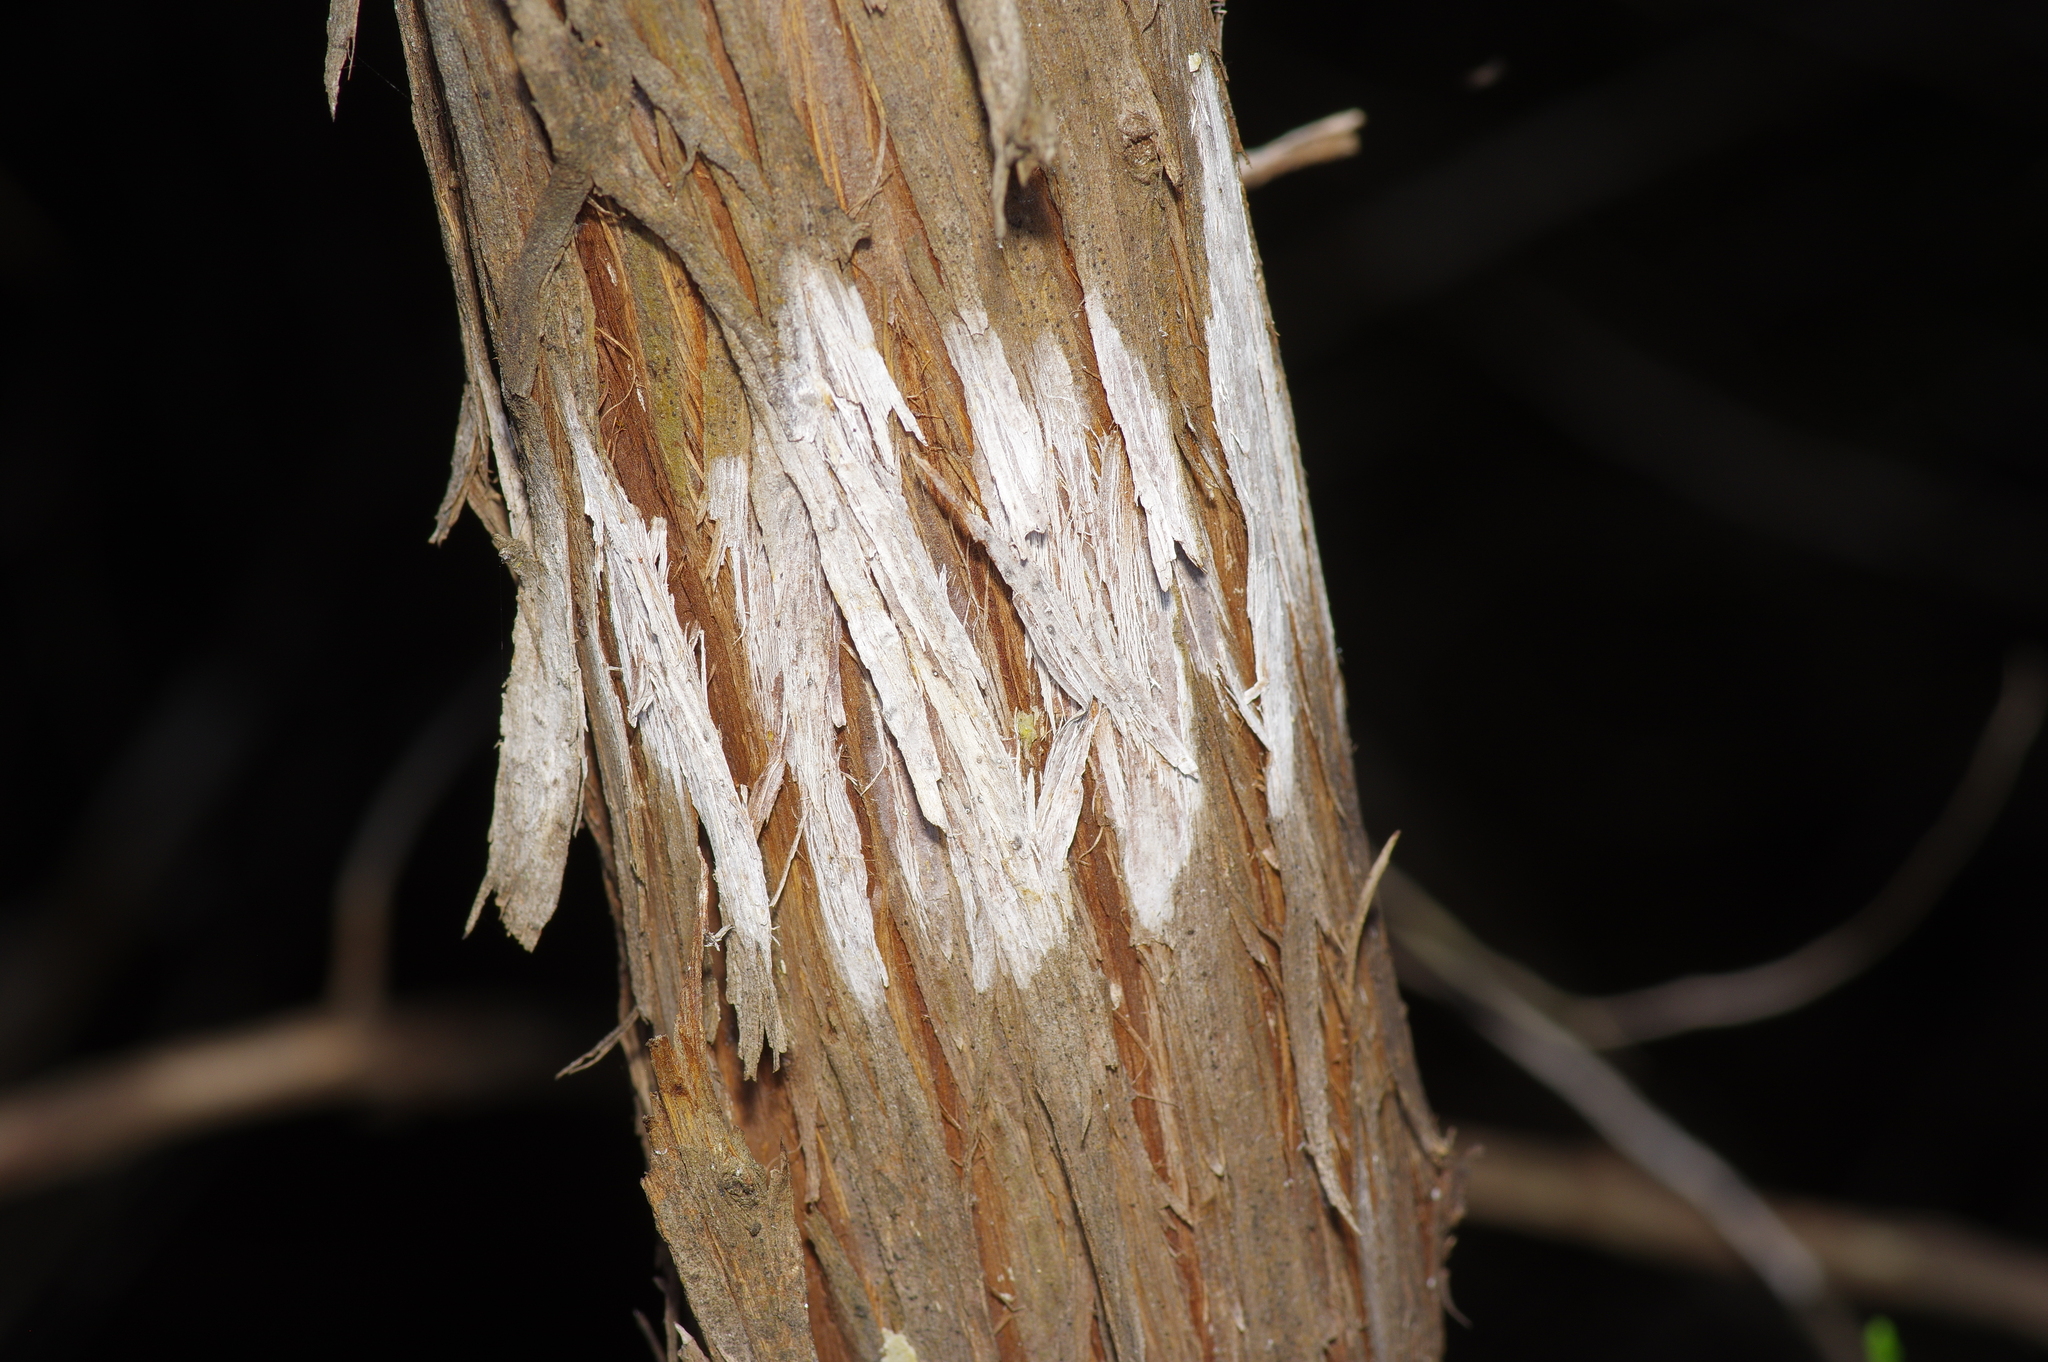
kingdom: Fungi
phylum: Ascomycota
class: Lecanoromycetes
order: Ostropales
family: Stictidaceae
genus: Robergea
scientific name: Robergea
